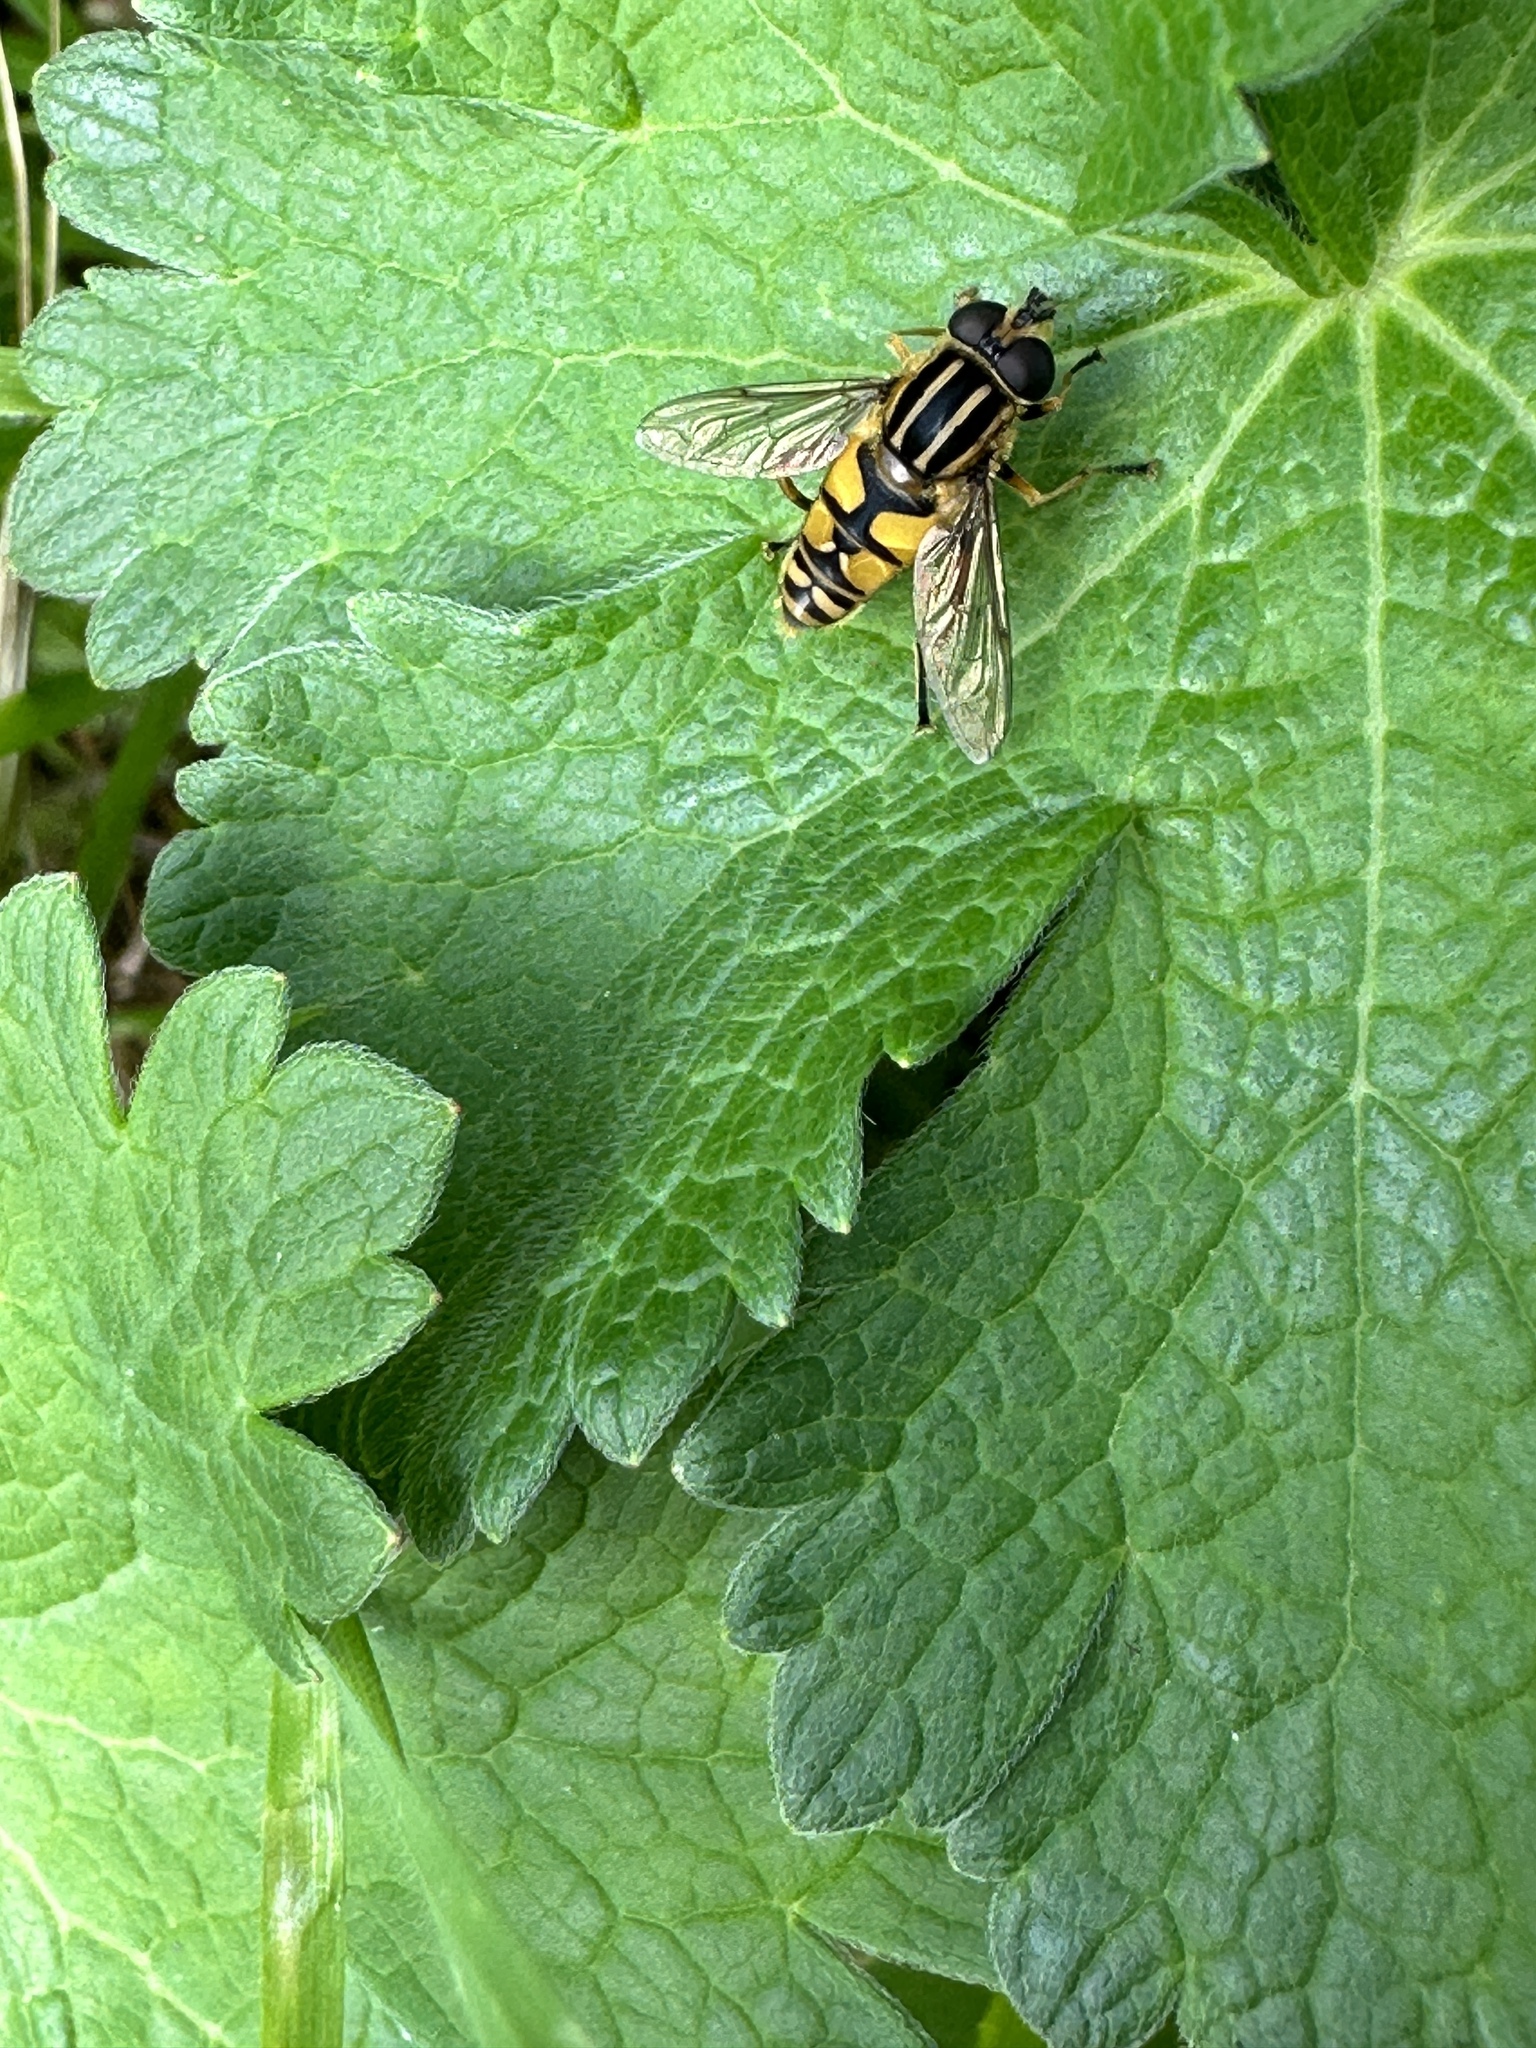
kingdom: Animalia
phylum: Arthropoda
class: Insecta
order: Diptera
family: Syrphidae
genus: Helophilus
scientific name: Helophilus pendulus
